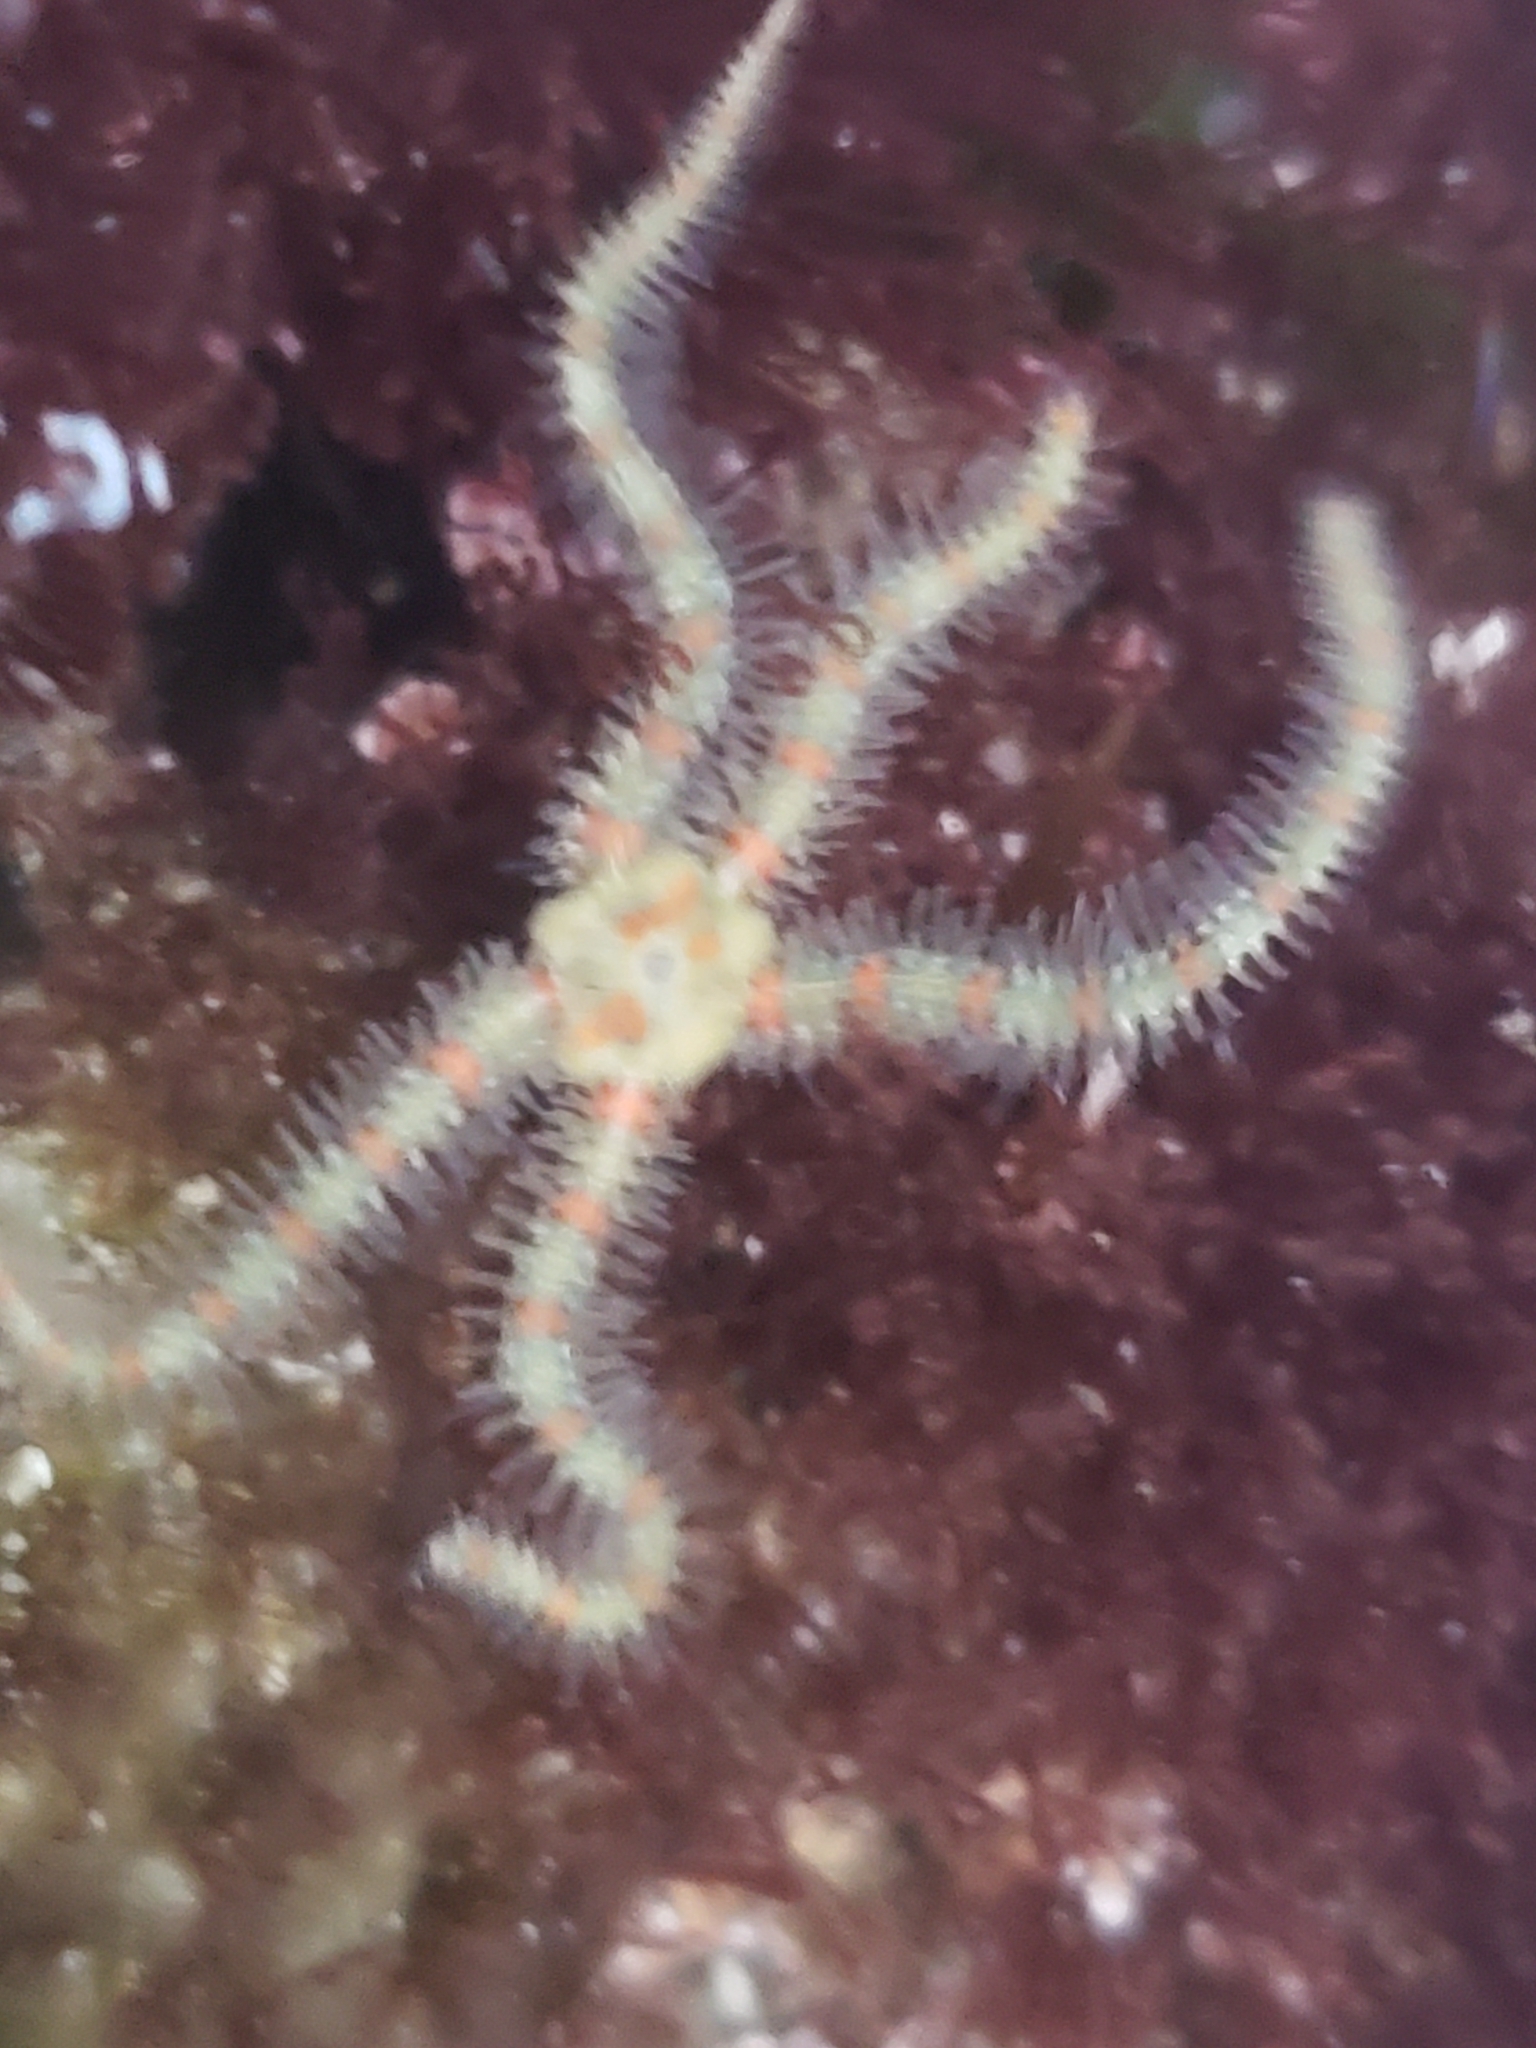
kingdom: Animalia
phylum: Echinodermata
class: Ophiuroidea
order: Amphilepidida
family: Ophiotrichidae
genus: Ophiothrix
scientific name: Ophiothrix spiculata
